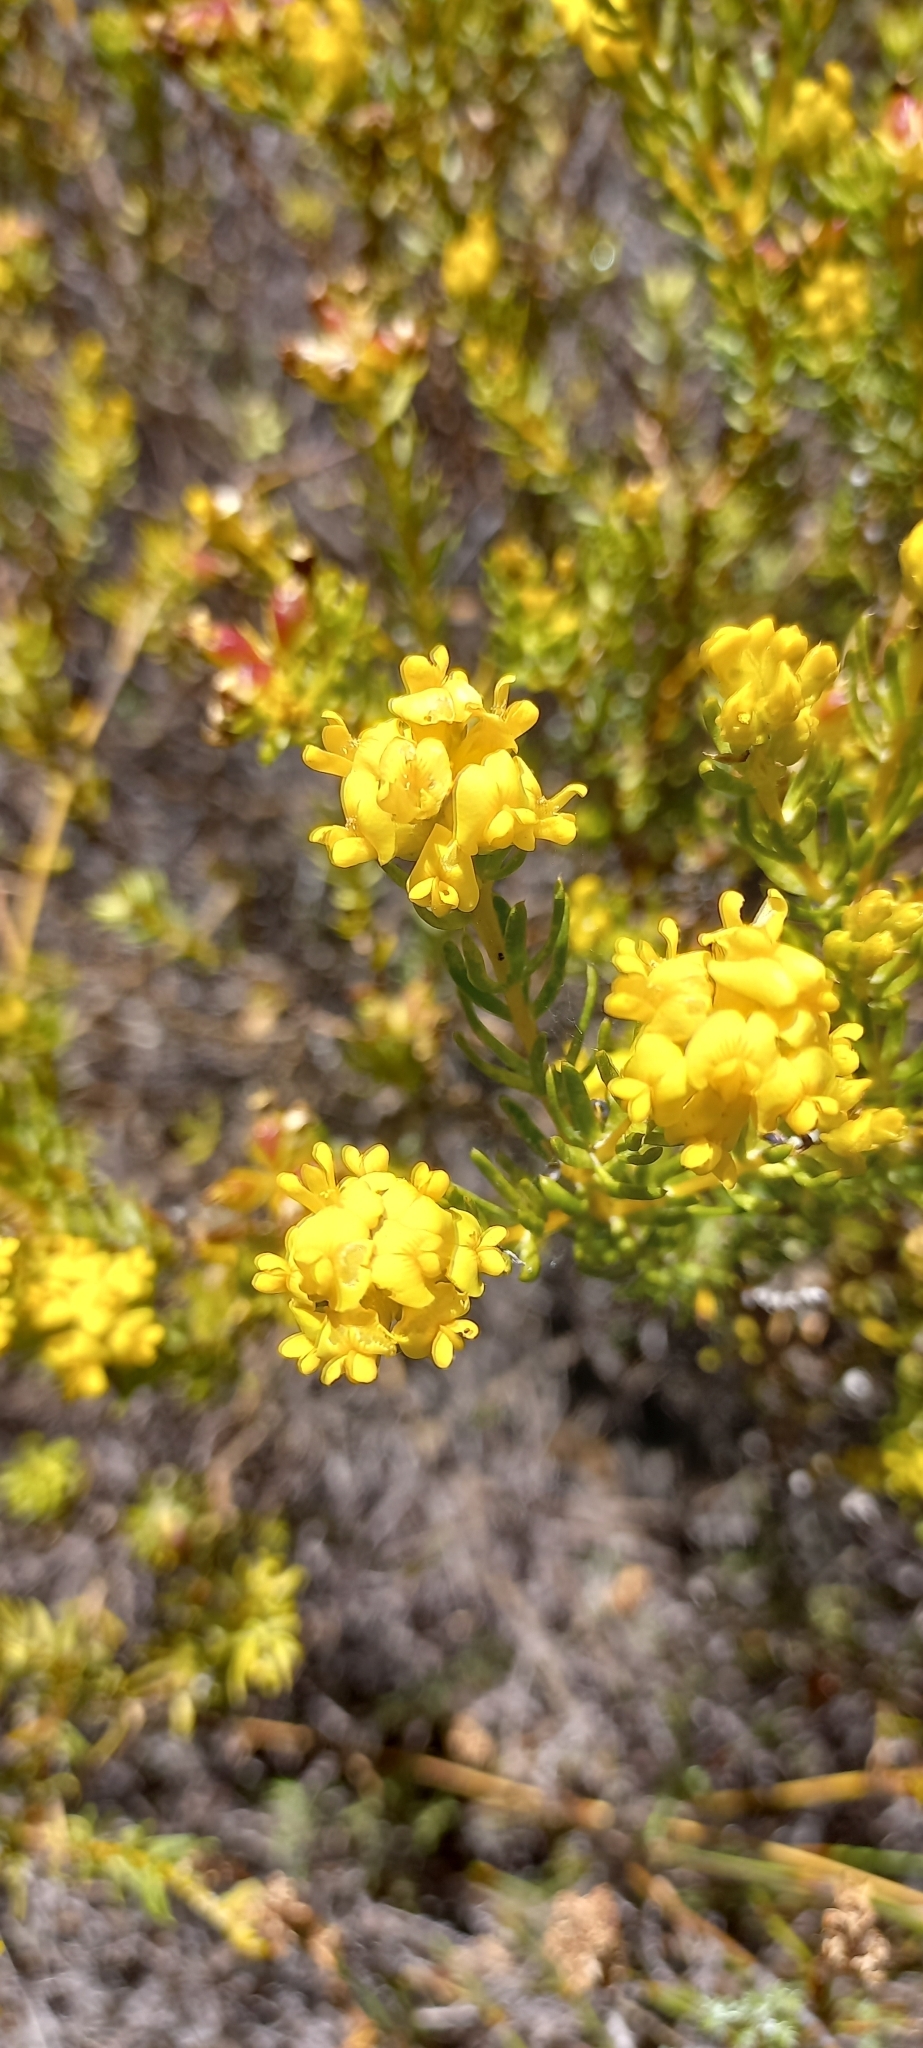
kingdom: Plantae
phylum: Tracheophyta
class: Magnoliopsida
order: Fabales
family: Fabaceae
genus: Aspalathus
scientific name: Aspalathus callosa
